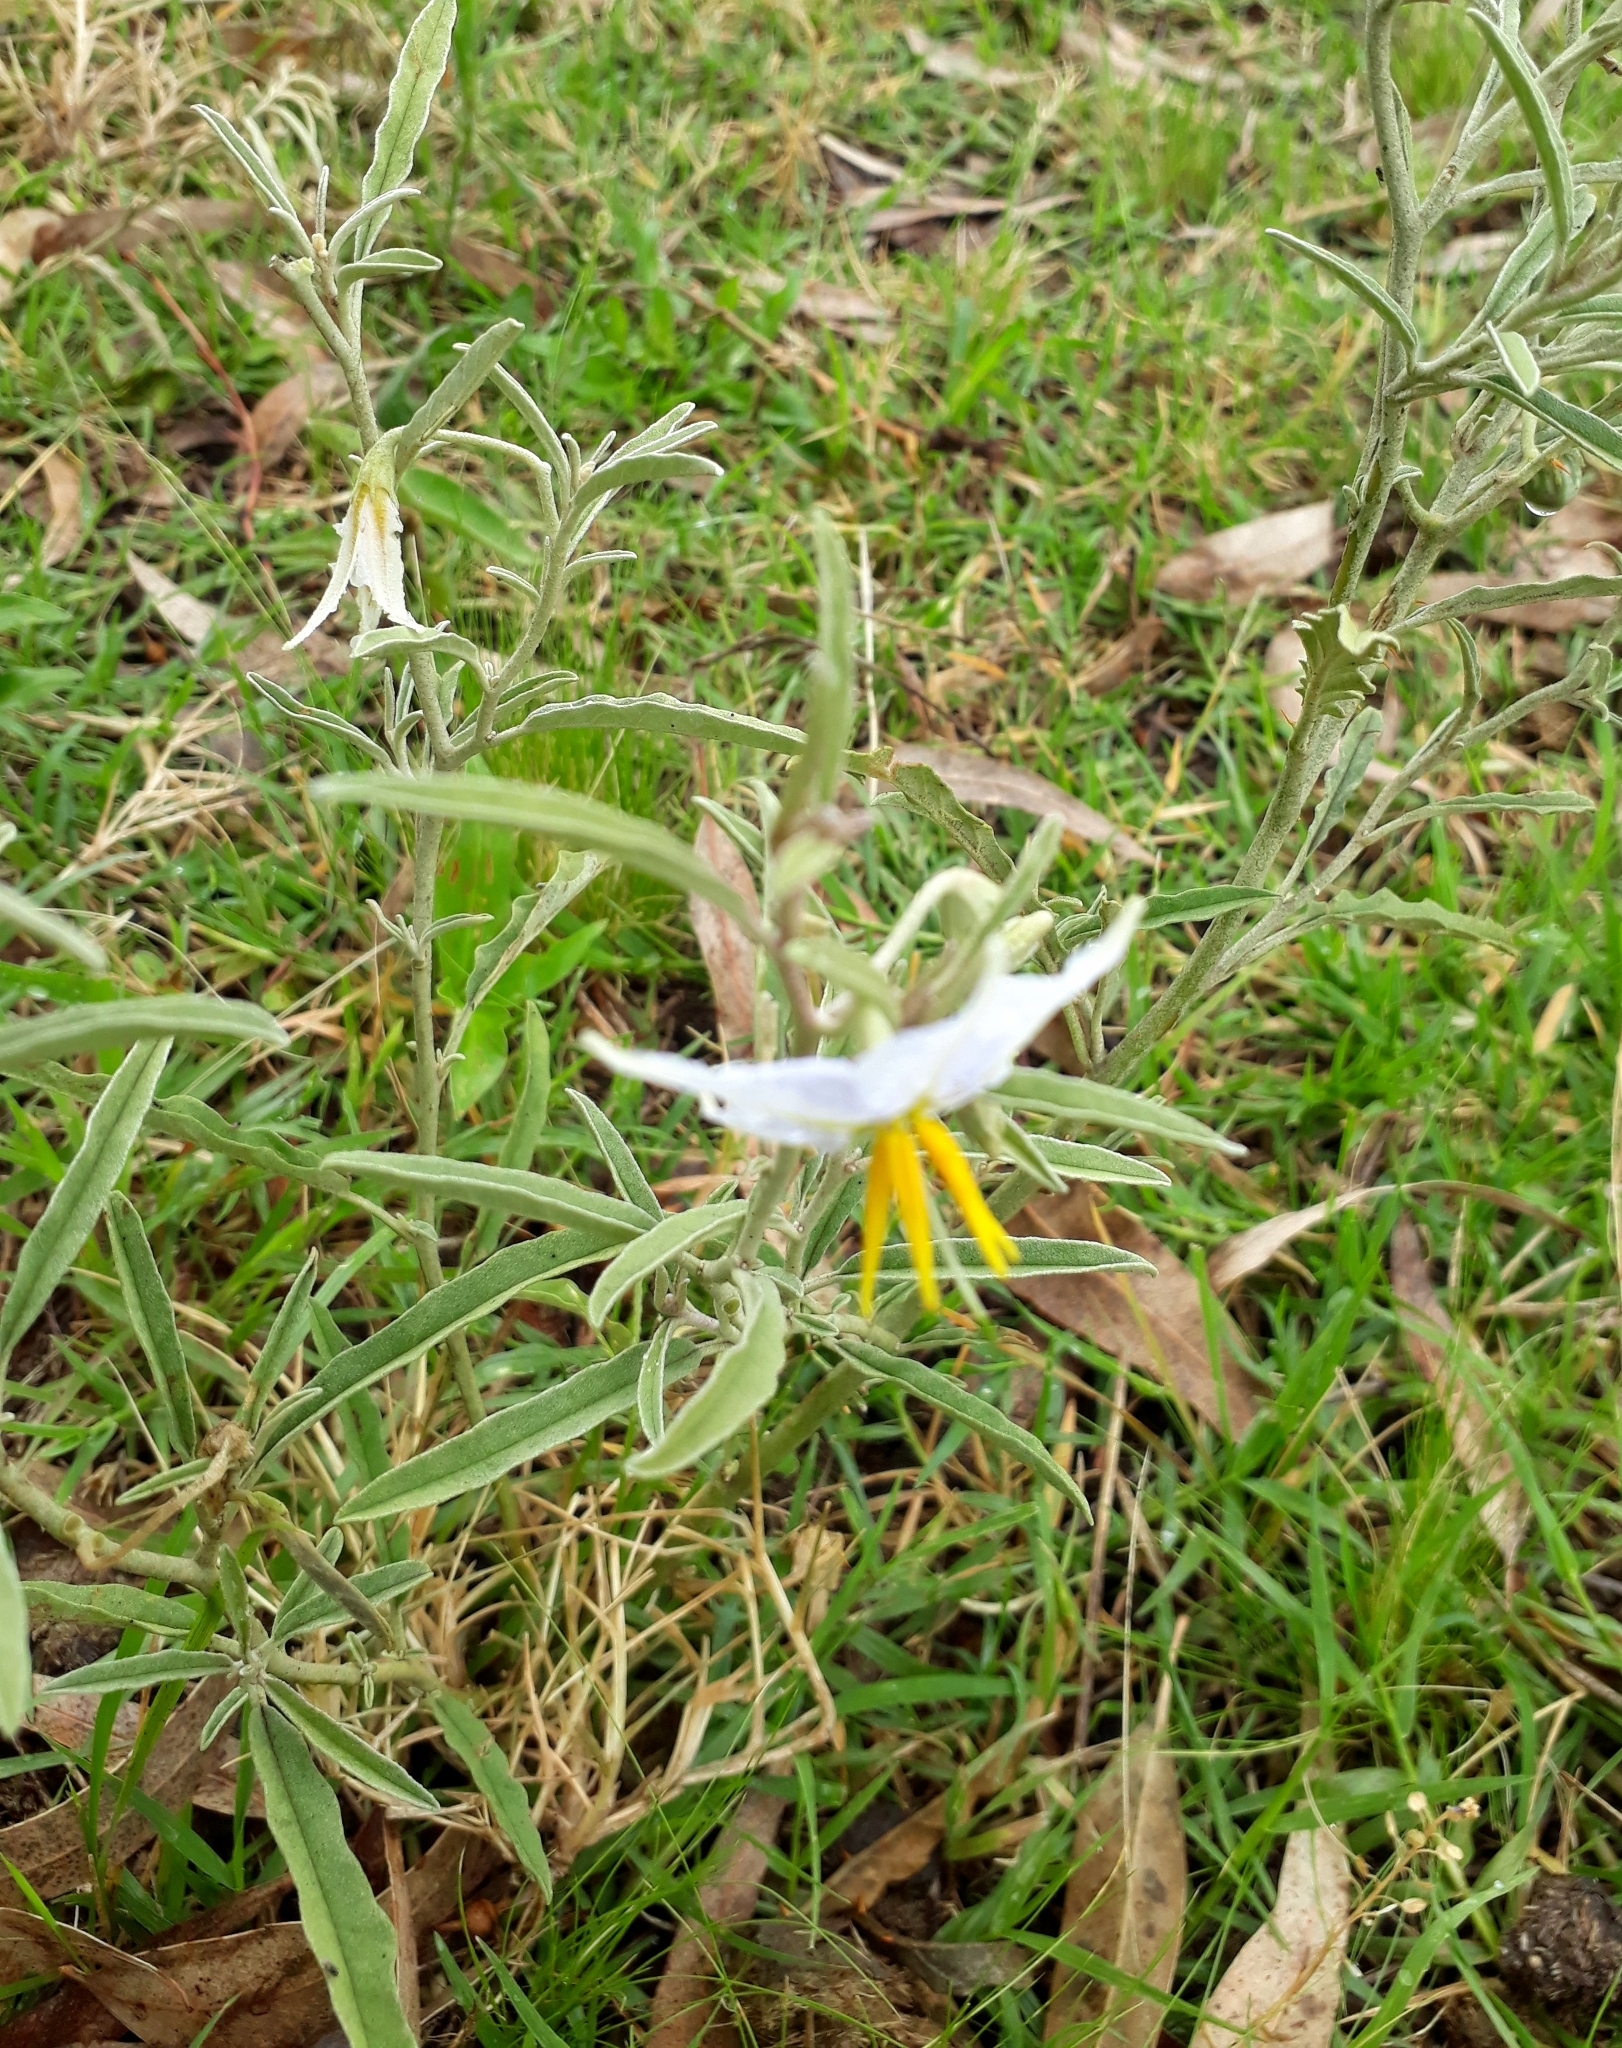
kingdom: Plantae
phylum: Tracheophyta
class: Magnoliopsida
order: Solanales
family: Solanaceae
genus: Solanum
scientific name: Solanum elaeagnifolium
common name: Silverleaf nightshade
